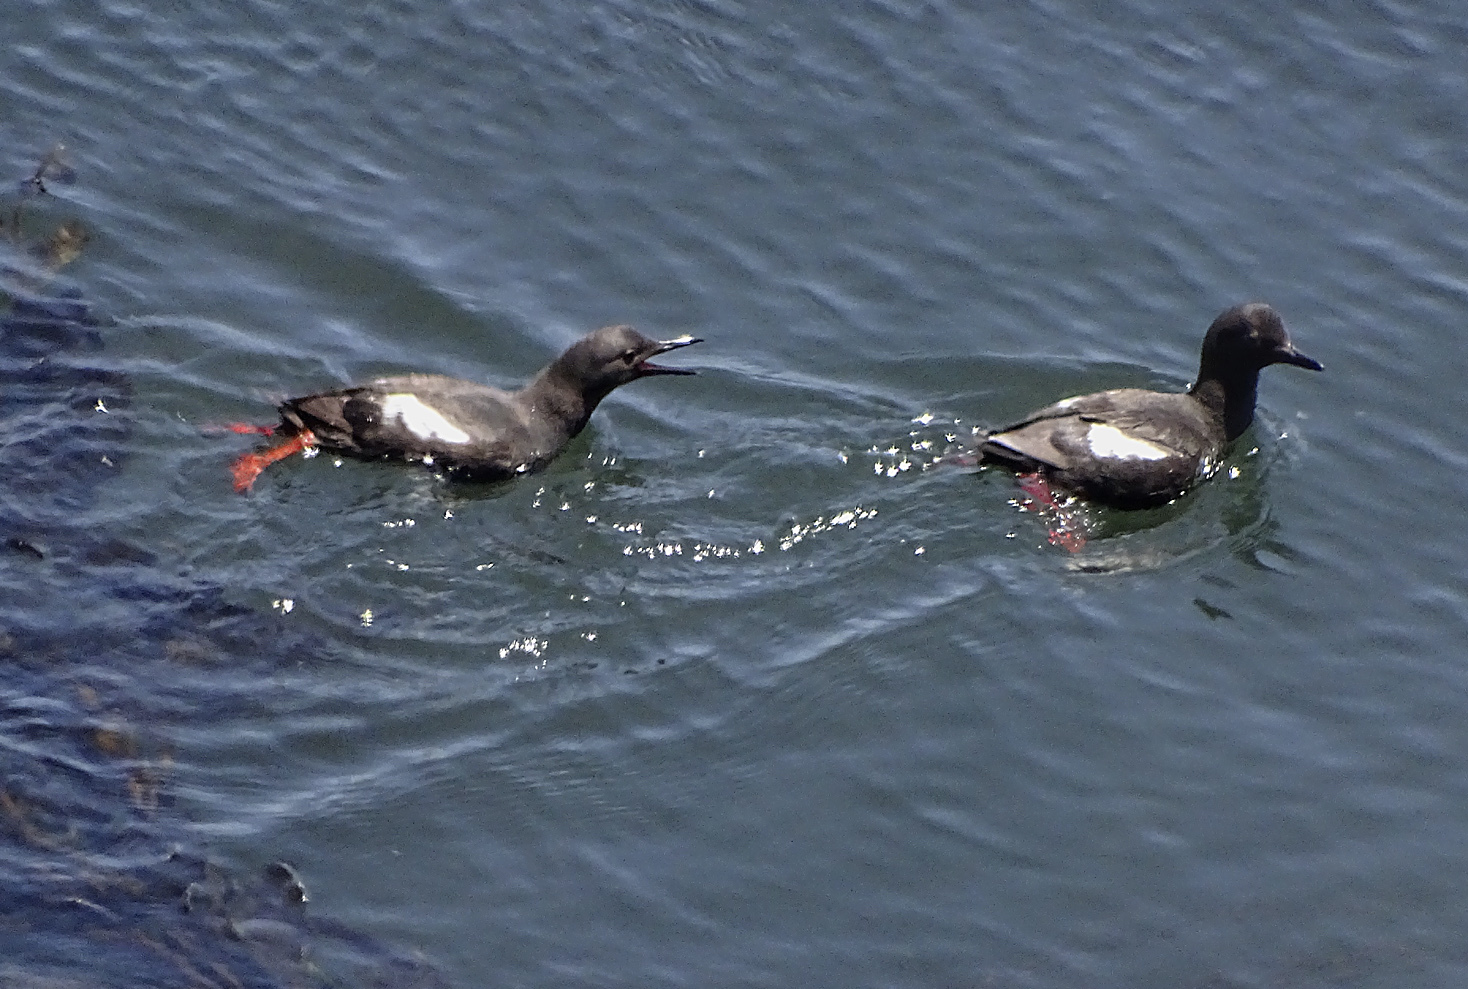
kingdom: Animalia
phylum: Chordata
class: Aves
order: Charadriiformes
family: Alcidae
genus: Cepphus
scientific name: Cepphus columba
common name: Pigeon guillemot
